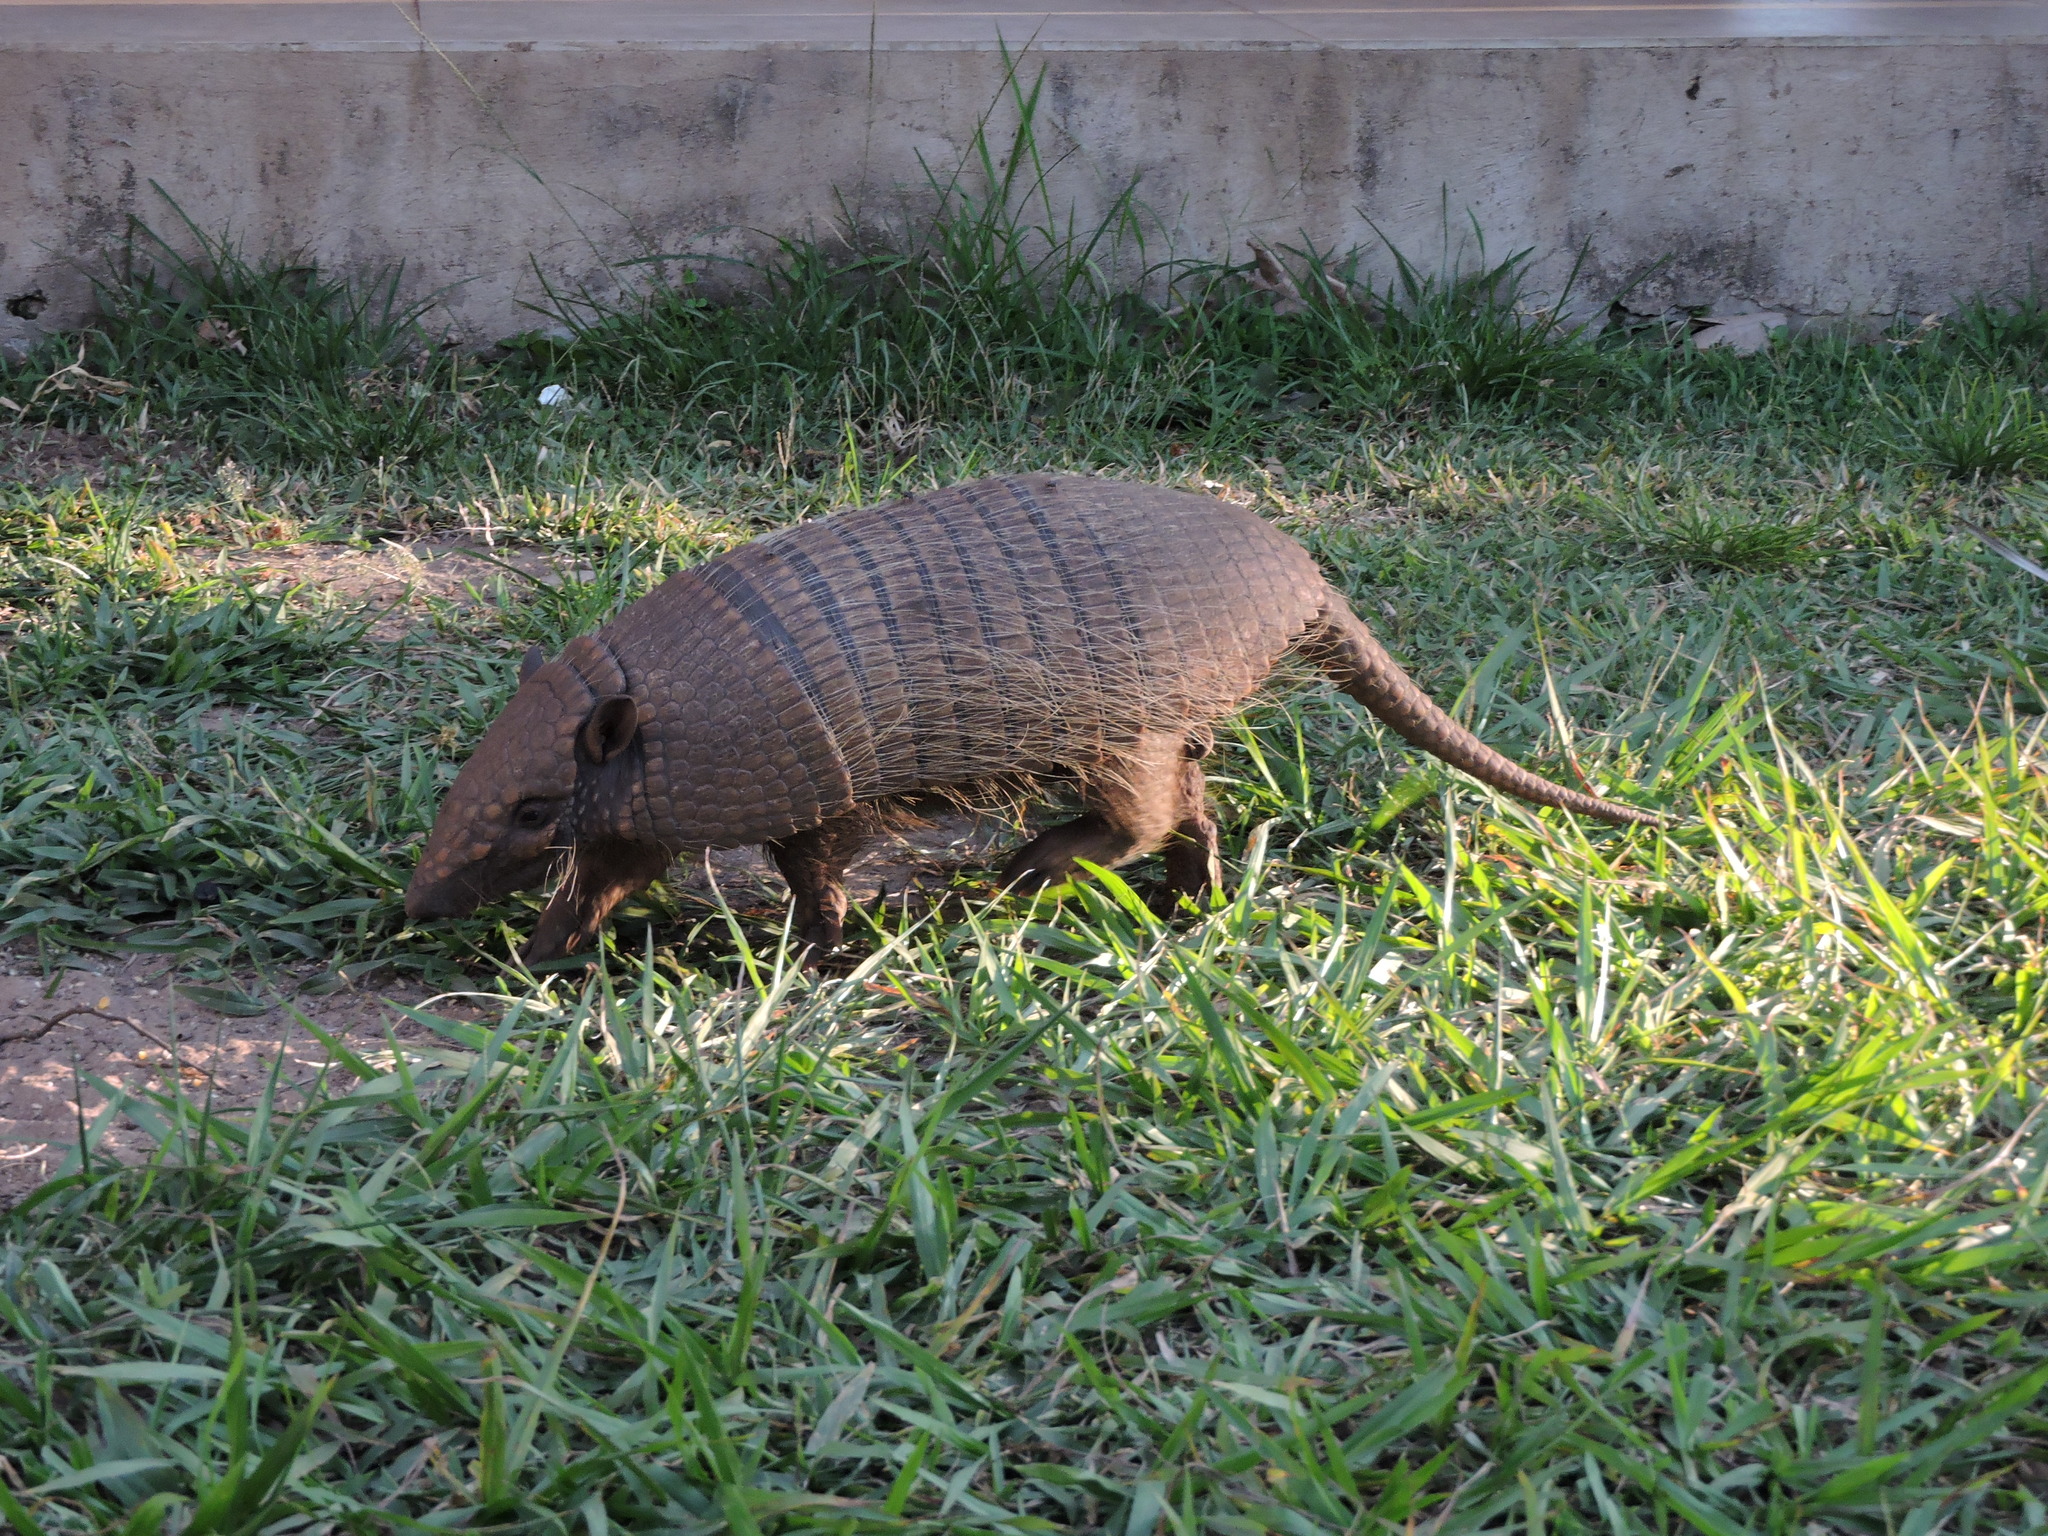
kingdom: Animalia
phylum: Chordata
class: Mammalia
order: Cingulata
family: Dasypodidae
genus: Euphractus
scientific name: Euphractus sexcinctus
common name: Six-banded armadillo
